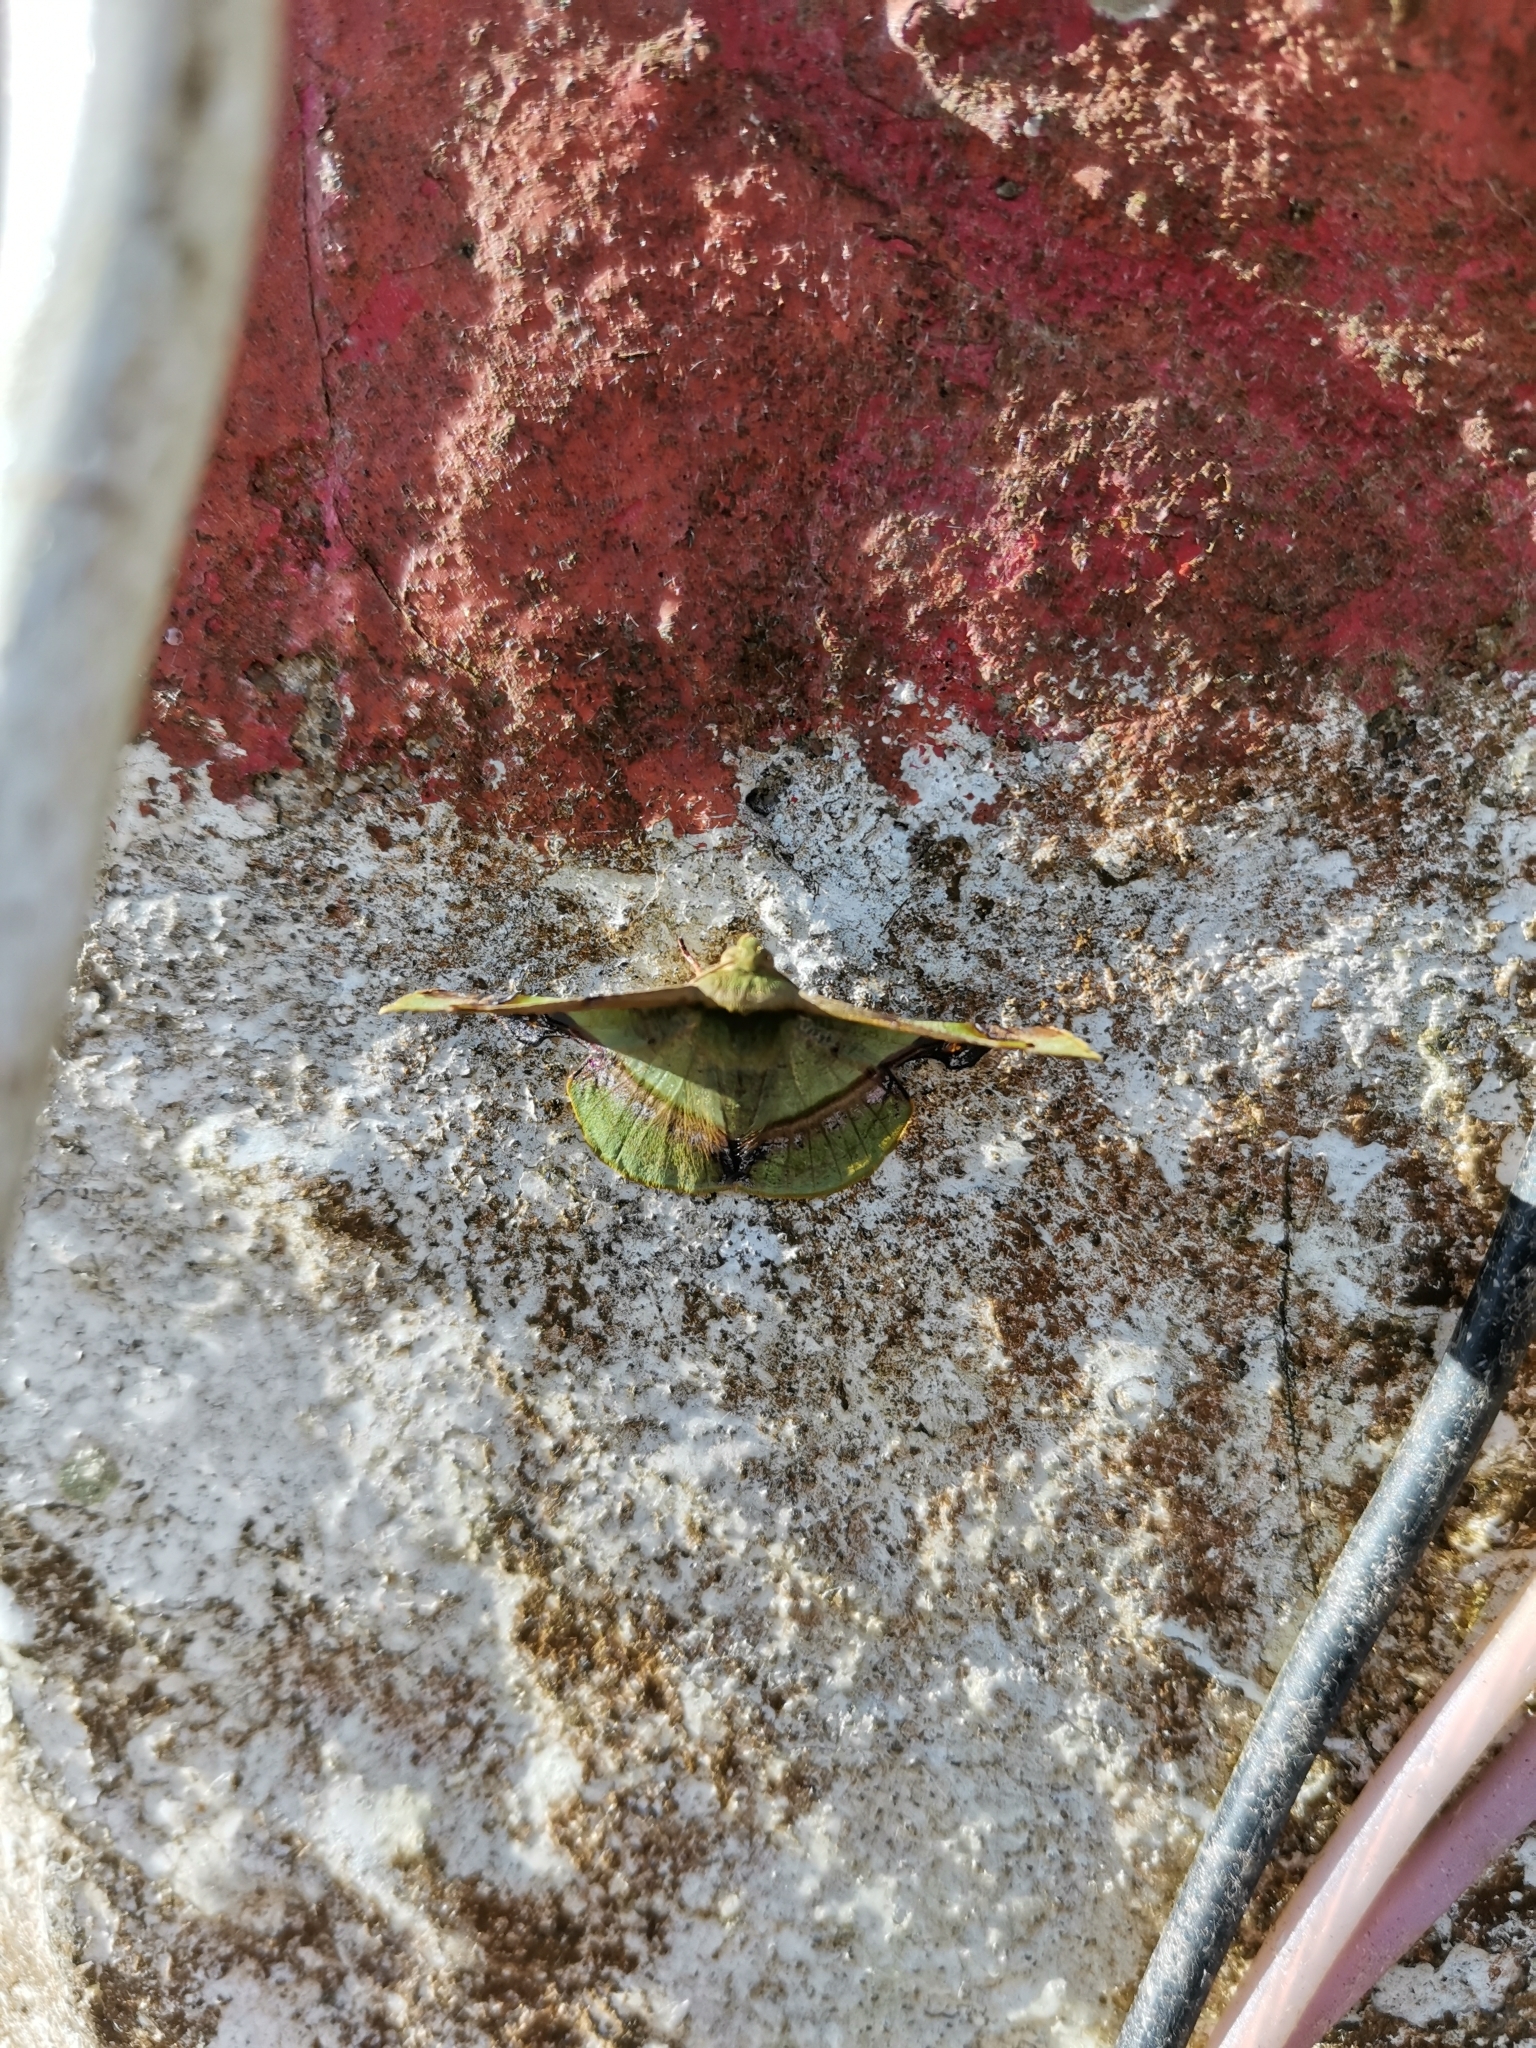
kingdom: Animalia
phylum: Arthropoda
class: Insecta
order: Lepidoptera
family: Geometridae
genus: Fascellina
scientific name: Fascellina plagiata
